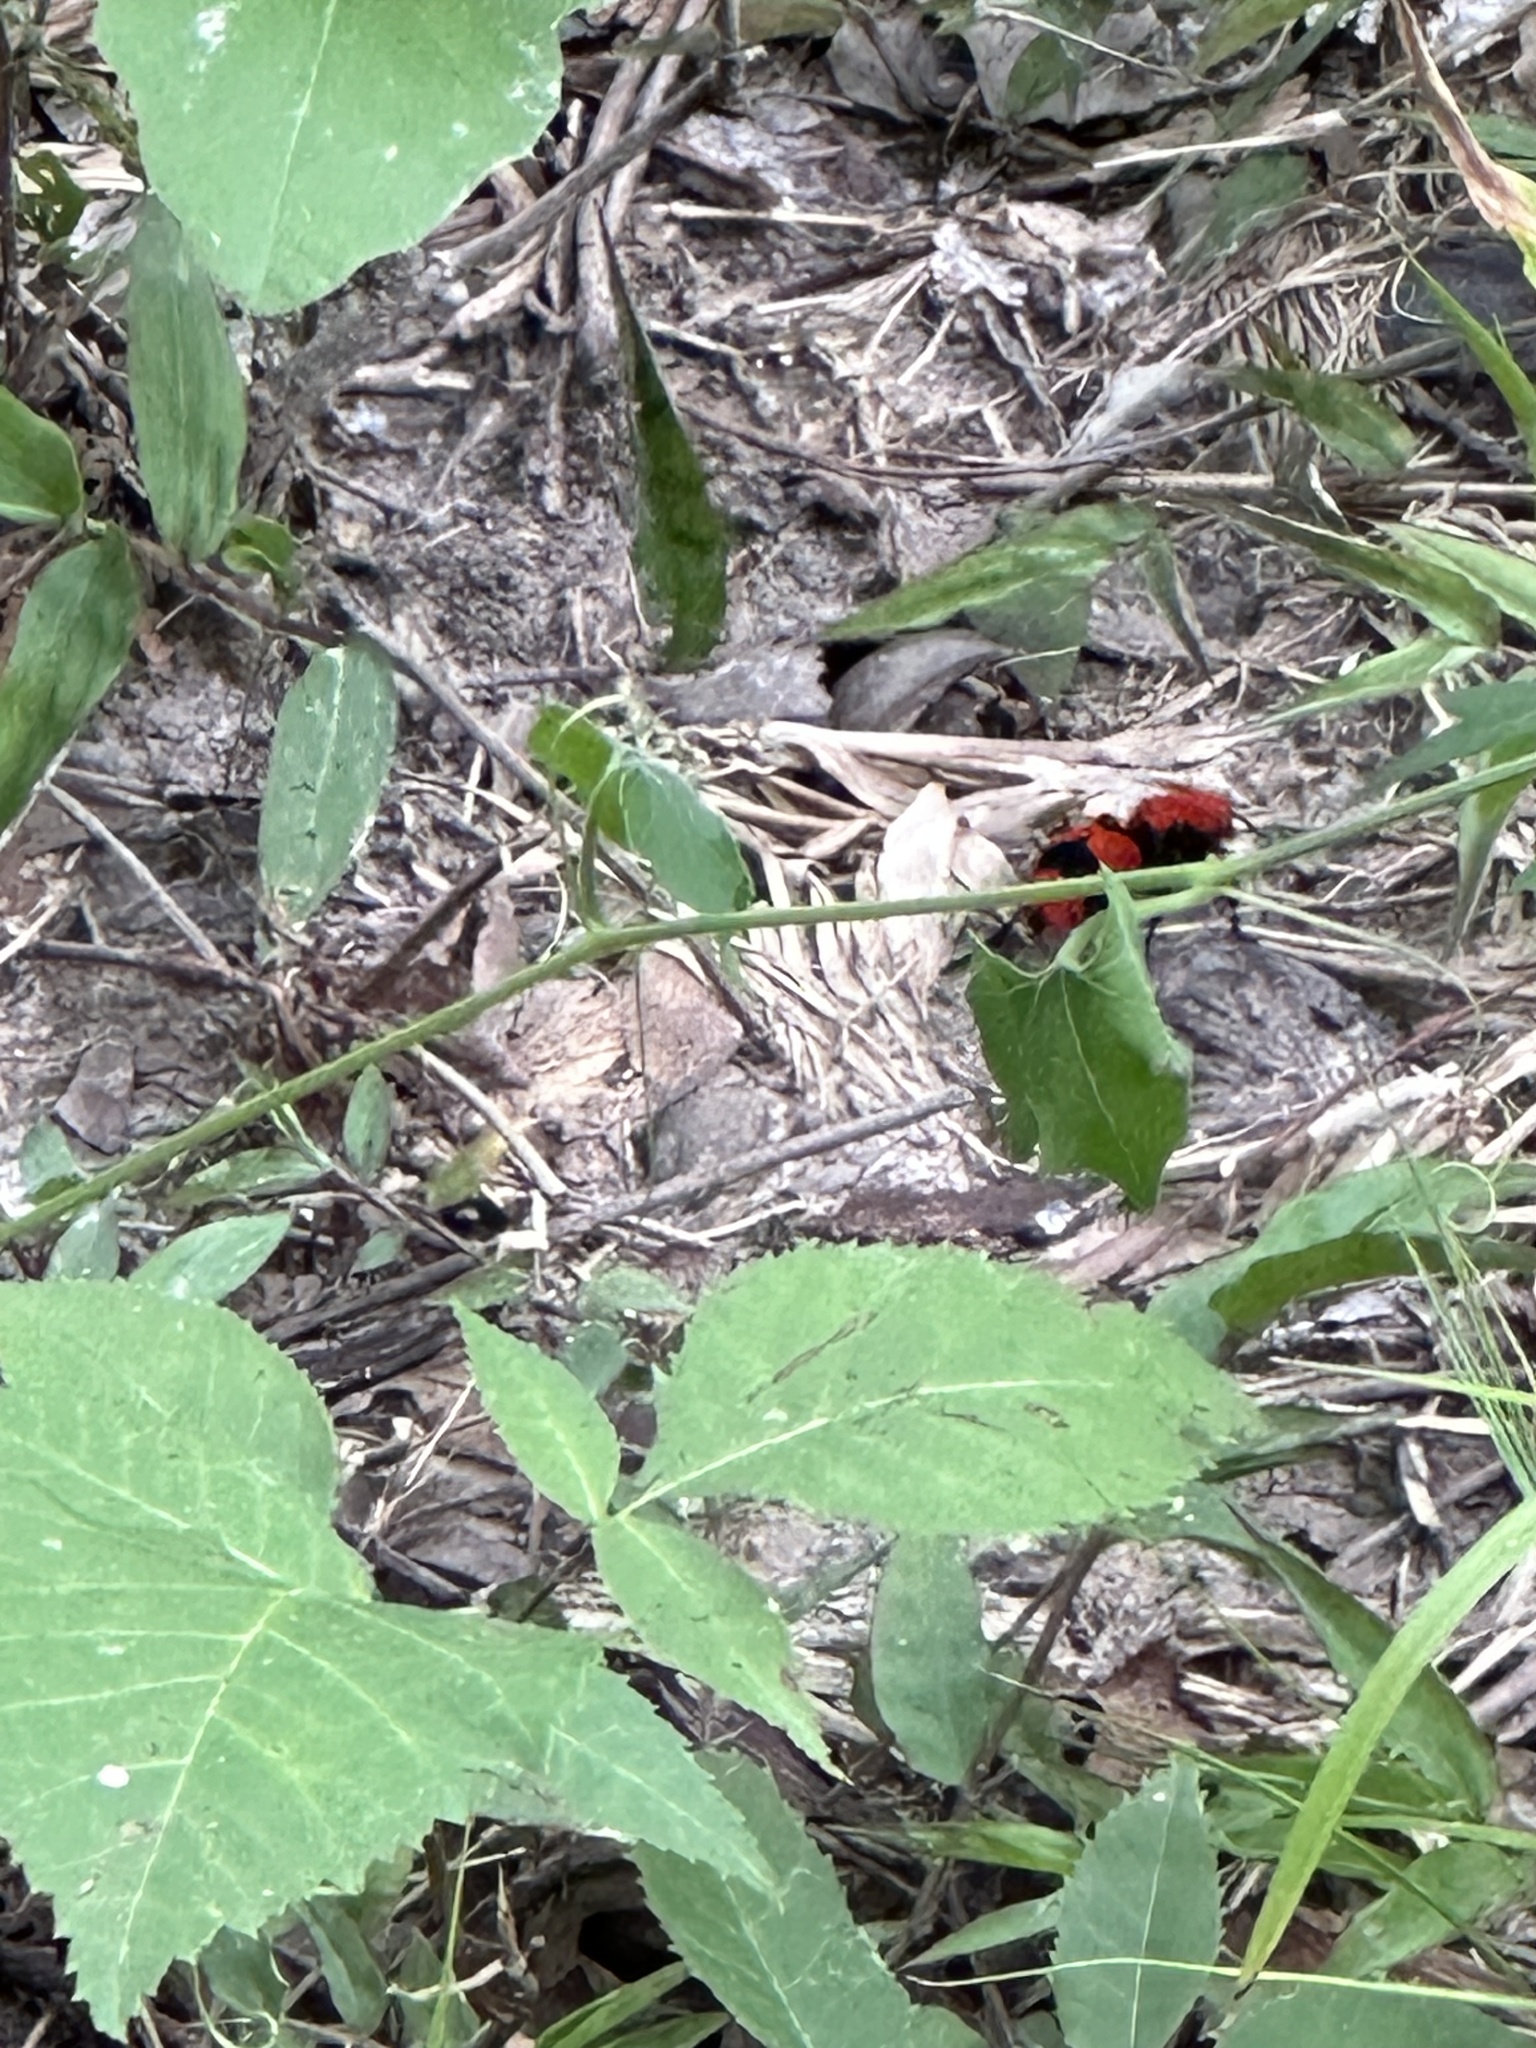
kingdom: Animalia
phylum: Arthropoda
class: Insecta
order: Hymenoptera
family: Mutillidae
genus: Dasymutilla
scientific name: Dasymutilla occidentalis
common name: Common eastern velvet ant
